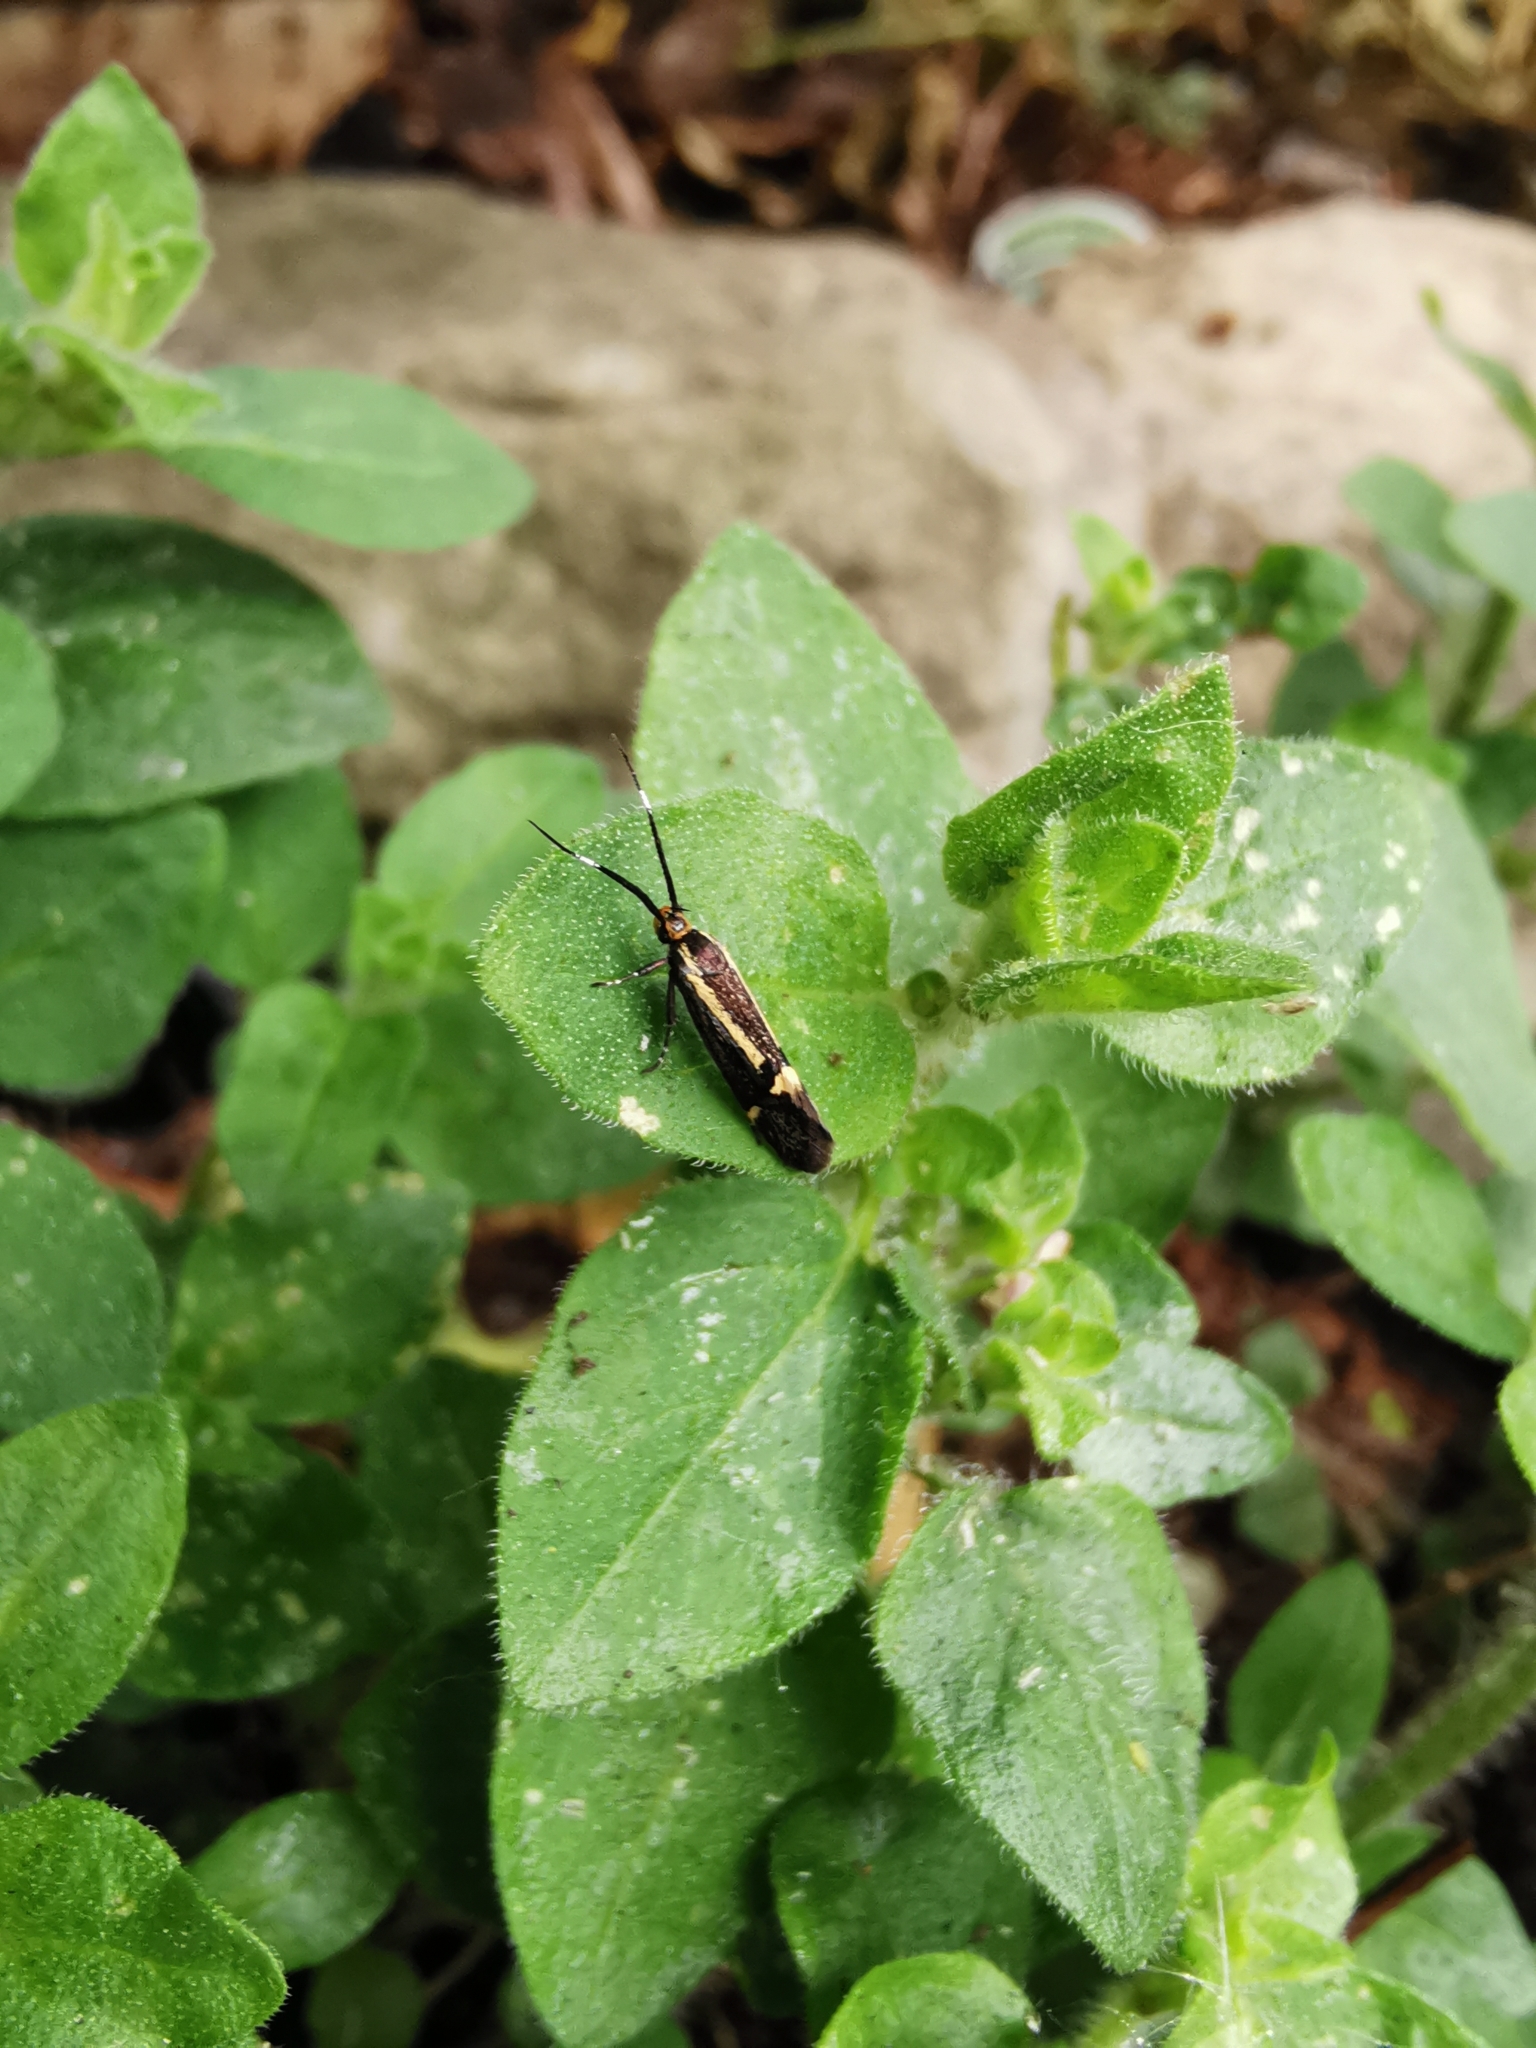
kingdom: Animalia
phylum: Arthropoda
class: Insecta
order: Lepidoptera
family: Oecophoridae
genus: Dafa
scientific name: Dafa Esperia sulphurella
